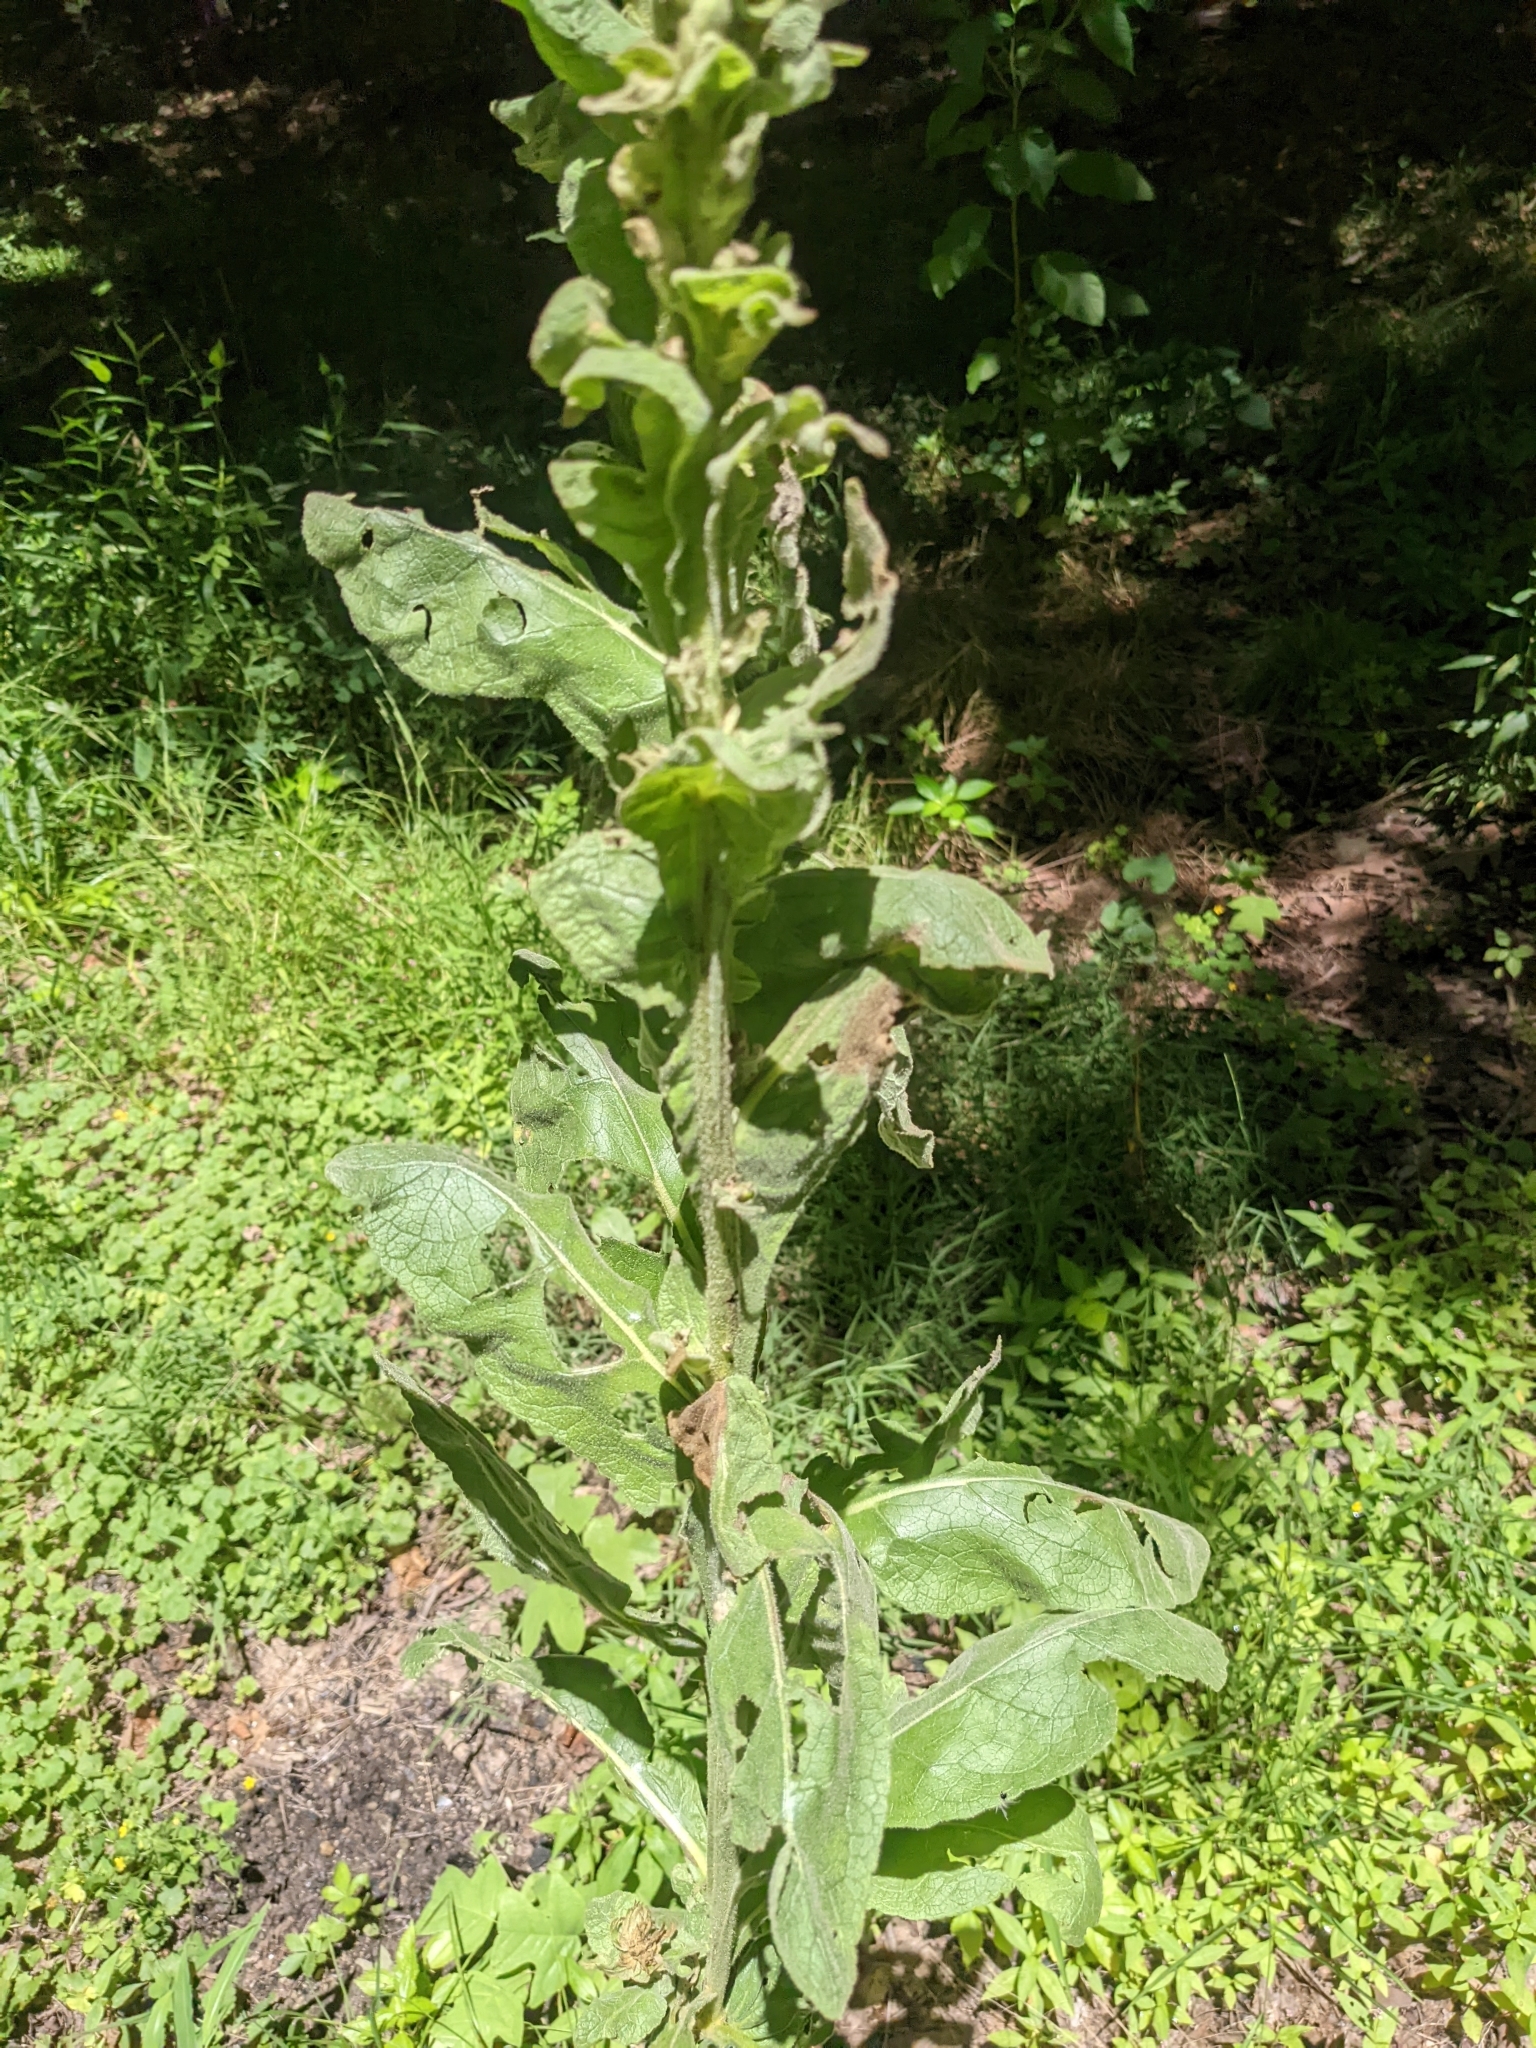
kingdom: Plantae
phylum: Tracheophyta
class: Magnoliopsida
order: Lamiales
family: Scrophulariaceae
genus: Verbascum
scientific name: Verbascum thapsus
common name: Common mullein
